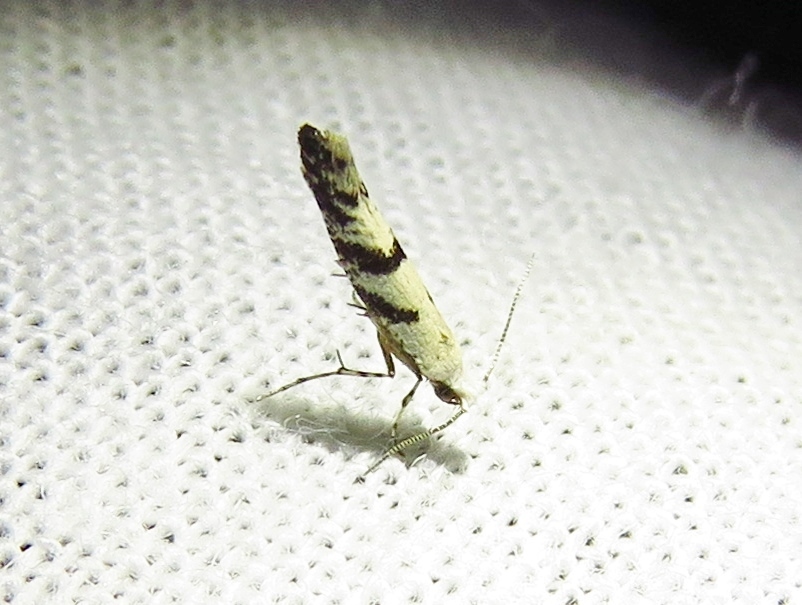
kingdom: Animalia
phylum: Arthropoda
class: Insecta
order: Lepidoptera
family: Argyresthiidae
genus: Argyresthia
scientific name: Argyresthia austerella
